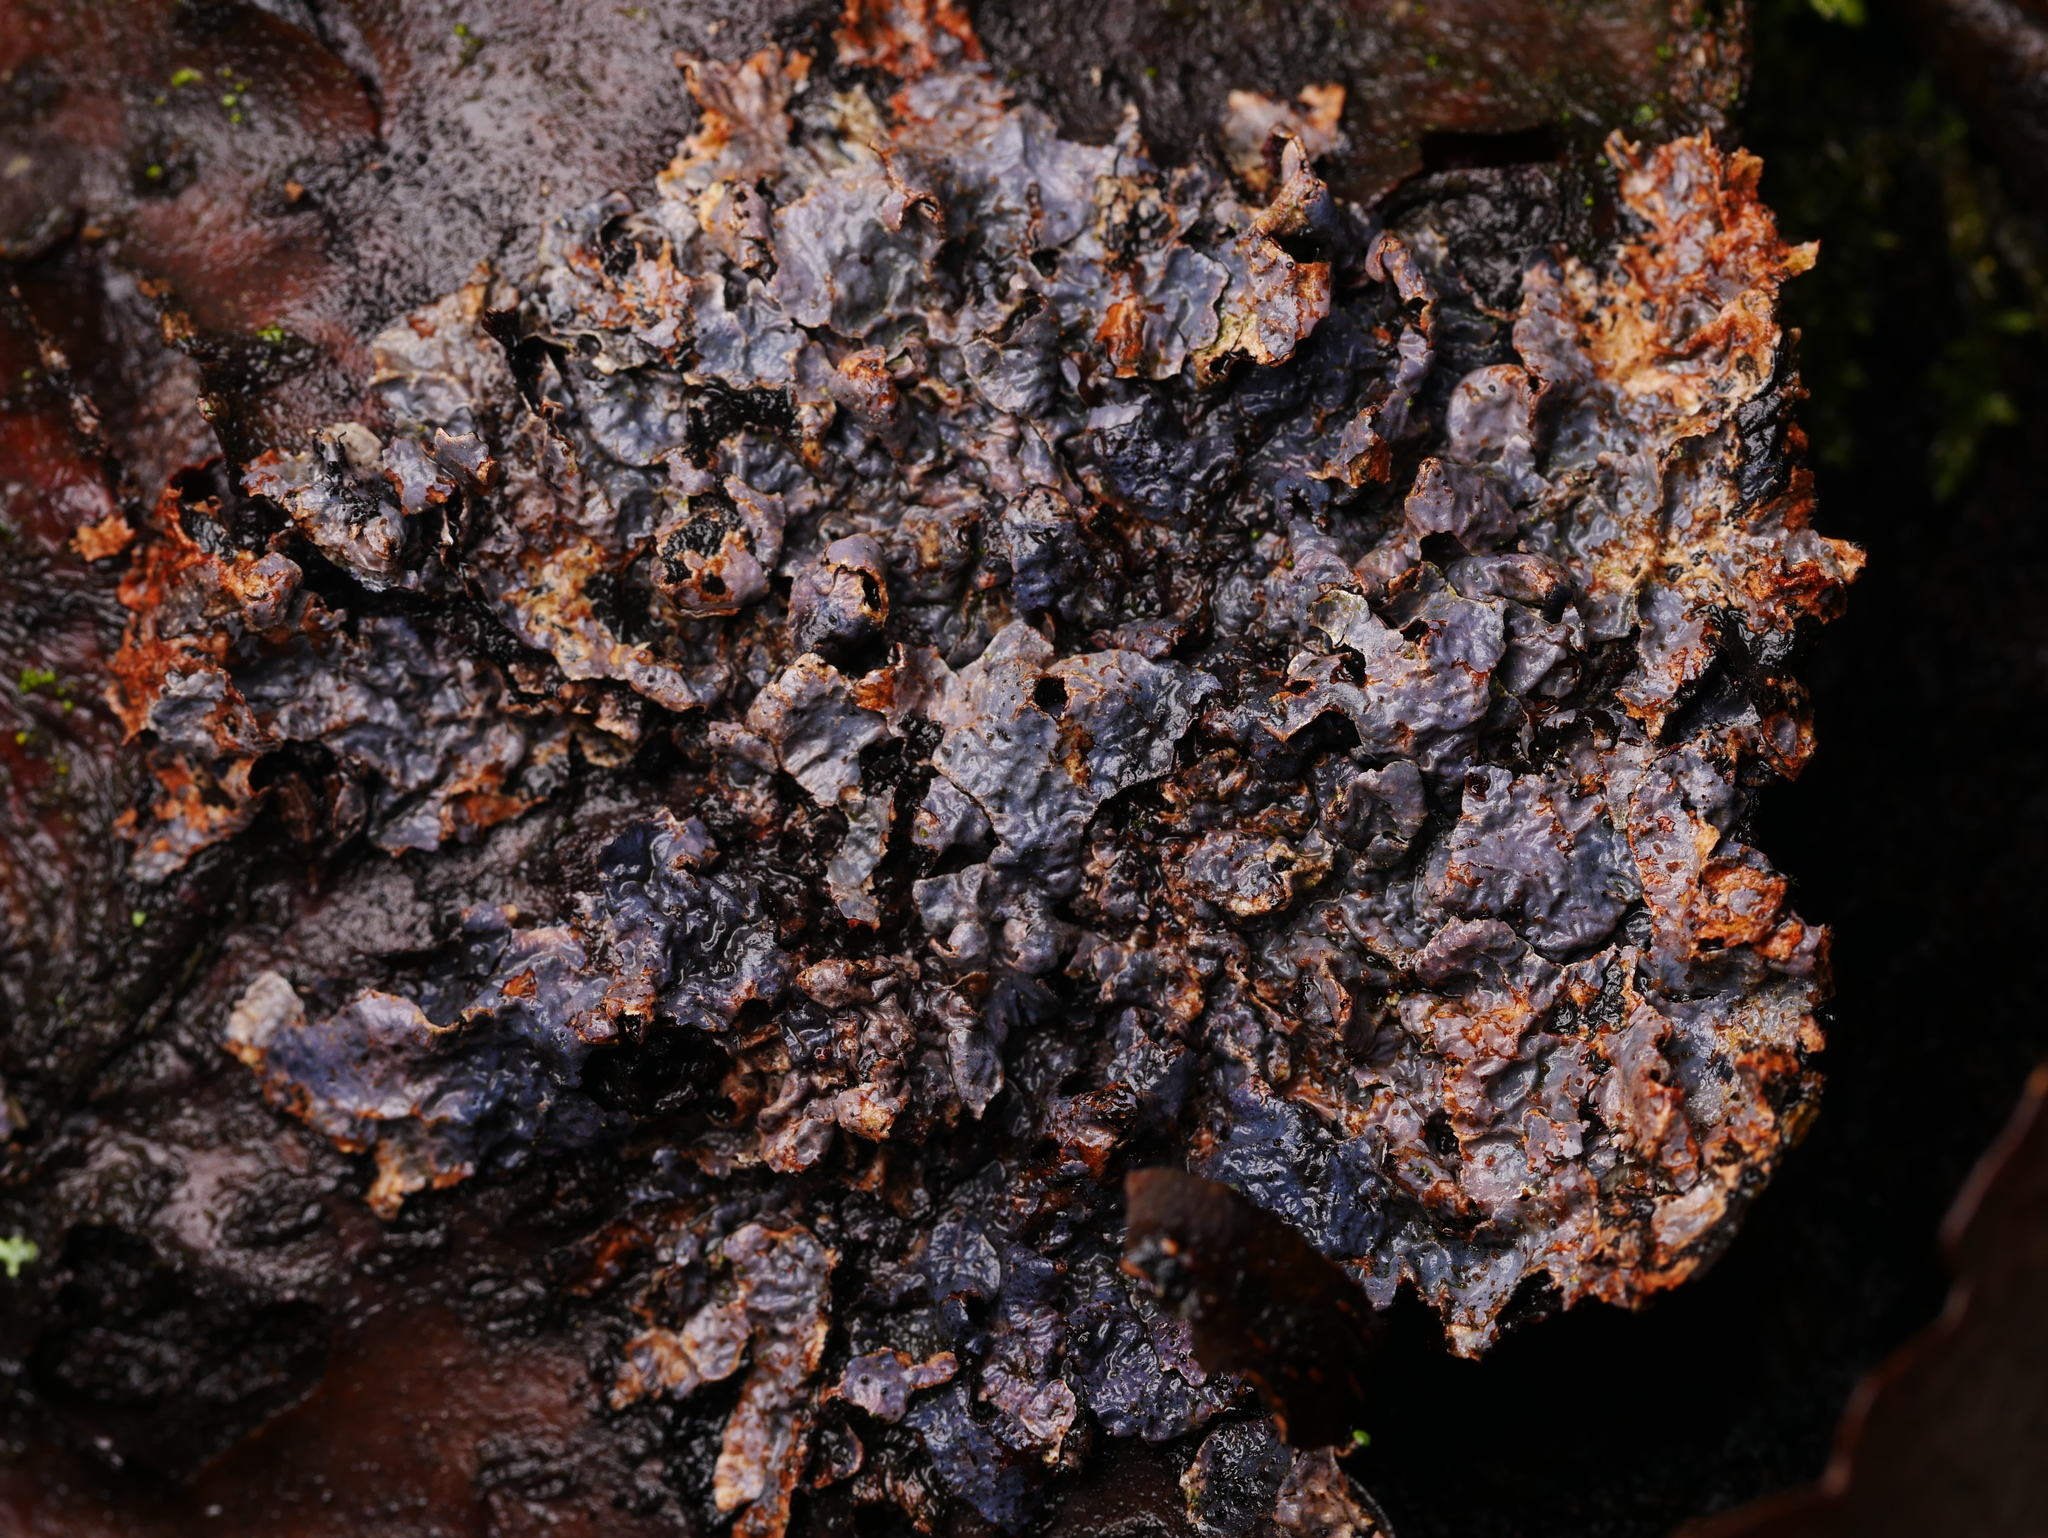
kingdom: Fungi
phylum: Ascomycota
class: Sordariomycetes
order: Hypocreales
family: Bionectriaceae
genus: Nectriopsis
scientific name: Nectriopsis rubefaciens
